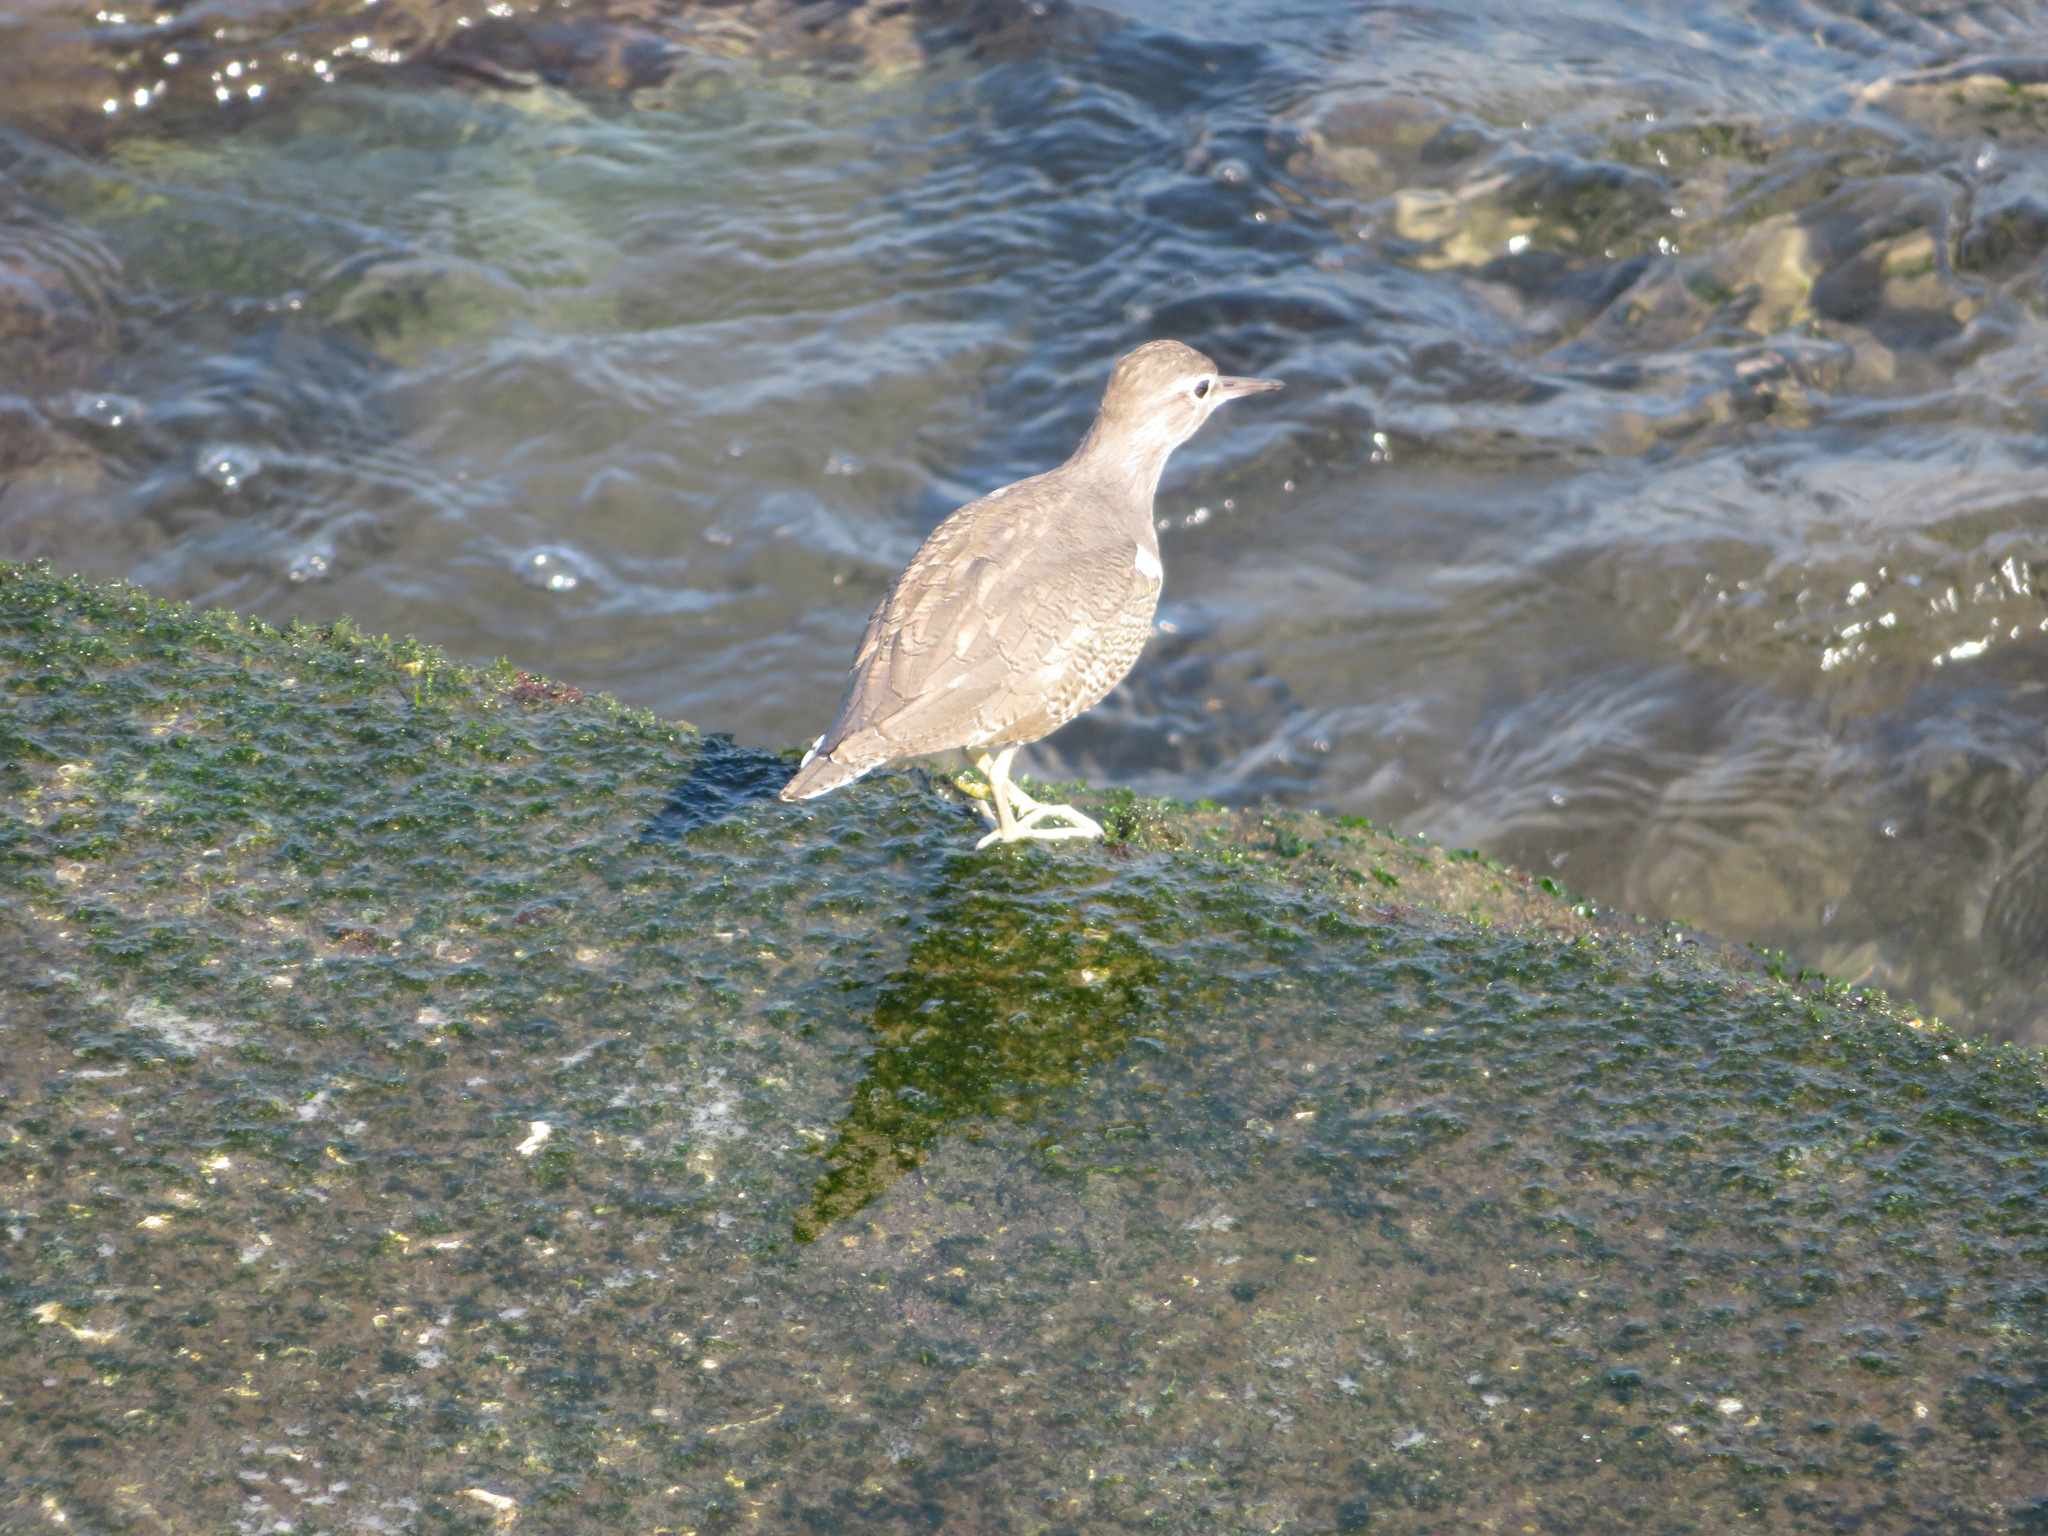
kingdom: Animalia
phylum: Chordata
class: Aves
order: Charadriiformes
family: Scolopacidae
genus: Actitis
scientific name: Actitis hypoleucos
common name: Common sandpiper
